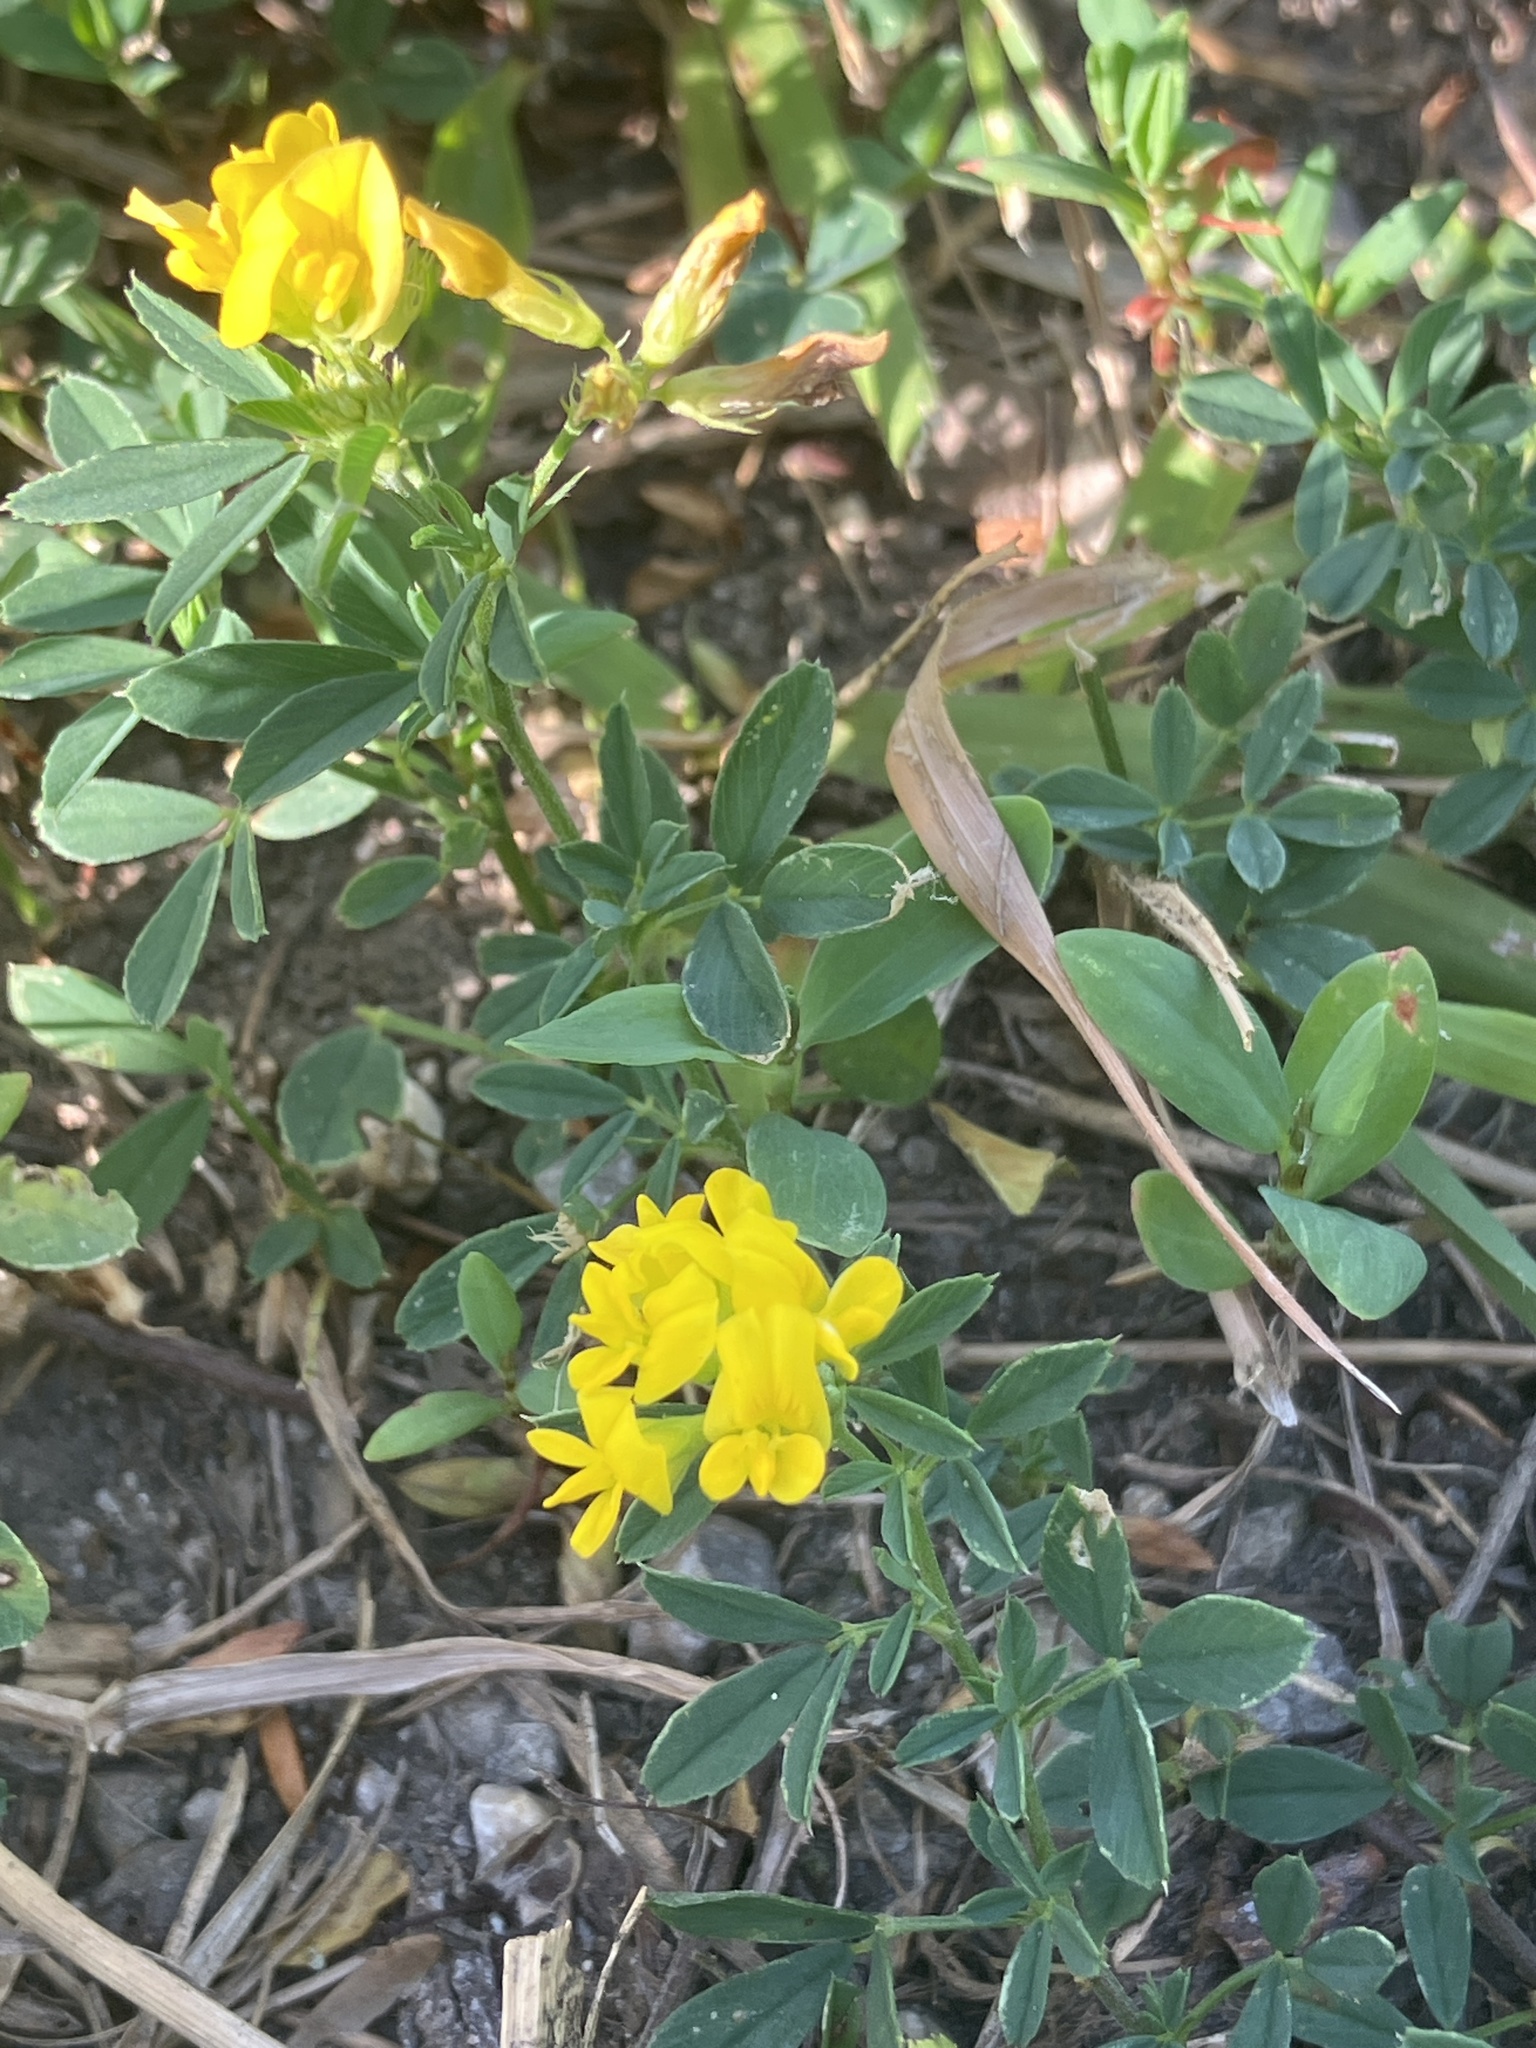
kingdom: Plantae
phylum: Tracheophyta
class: Magnoliopsida
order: Fabales
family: Fabaceae
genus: Medicago
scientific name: Medicago falcata
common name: Sickle medick
